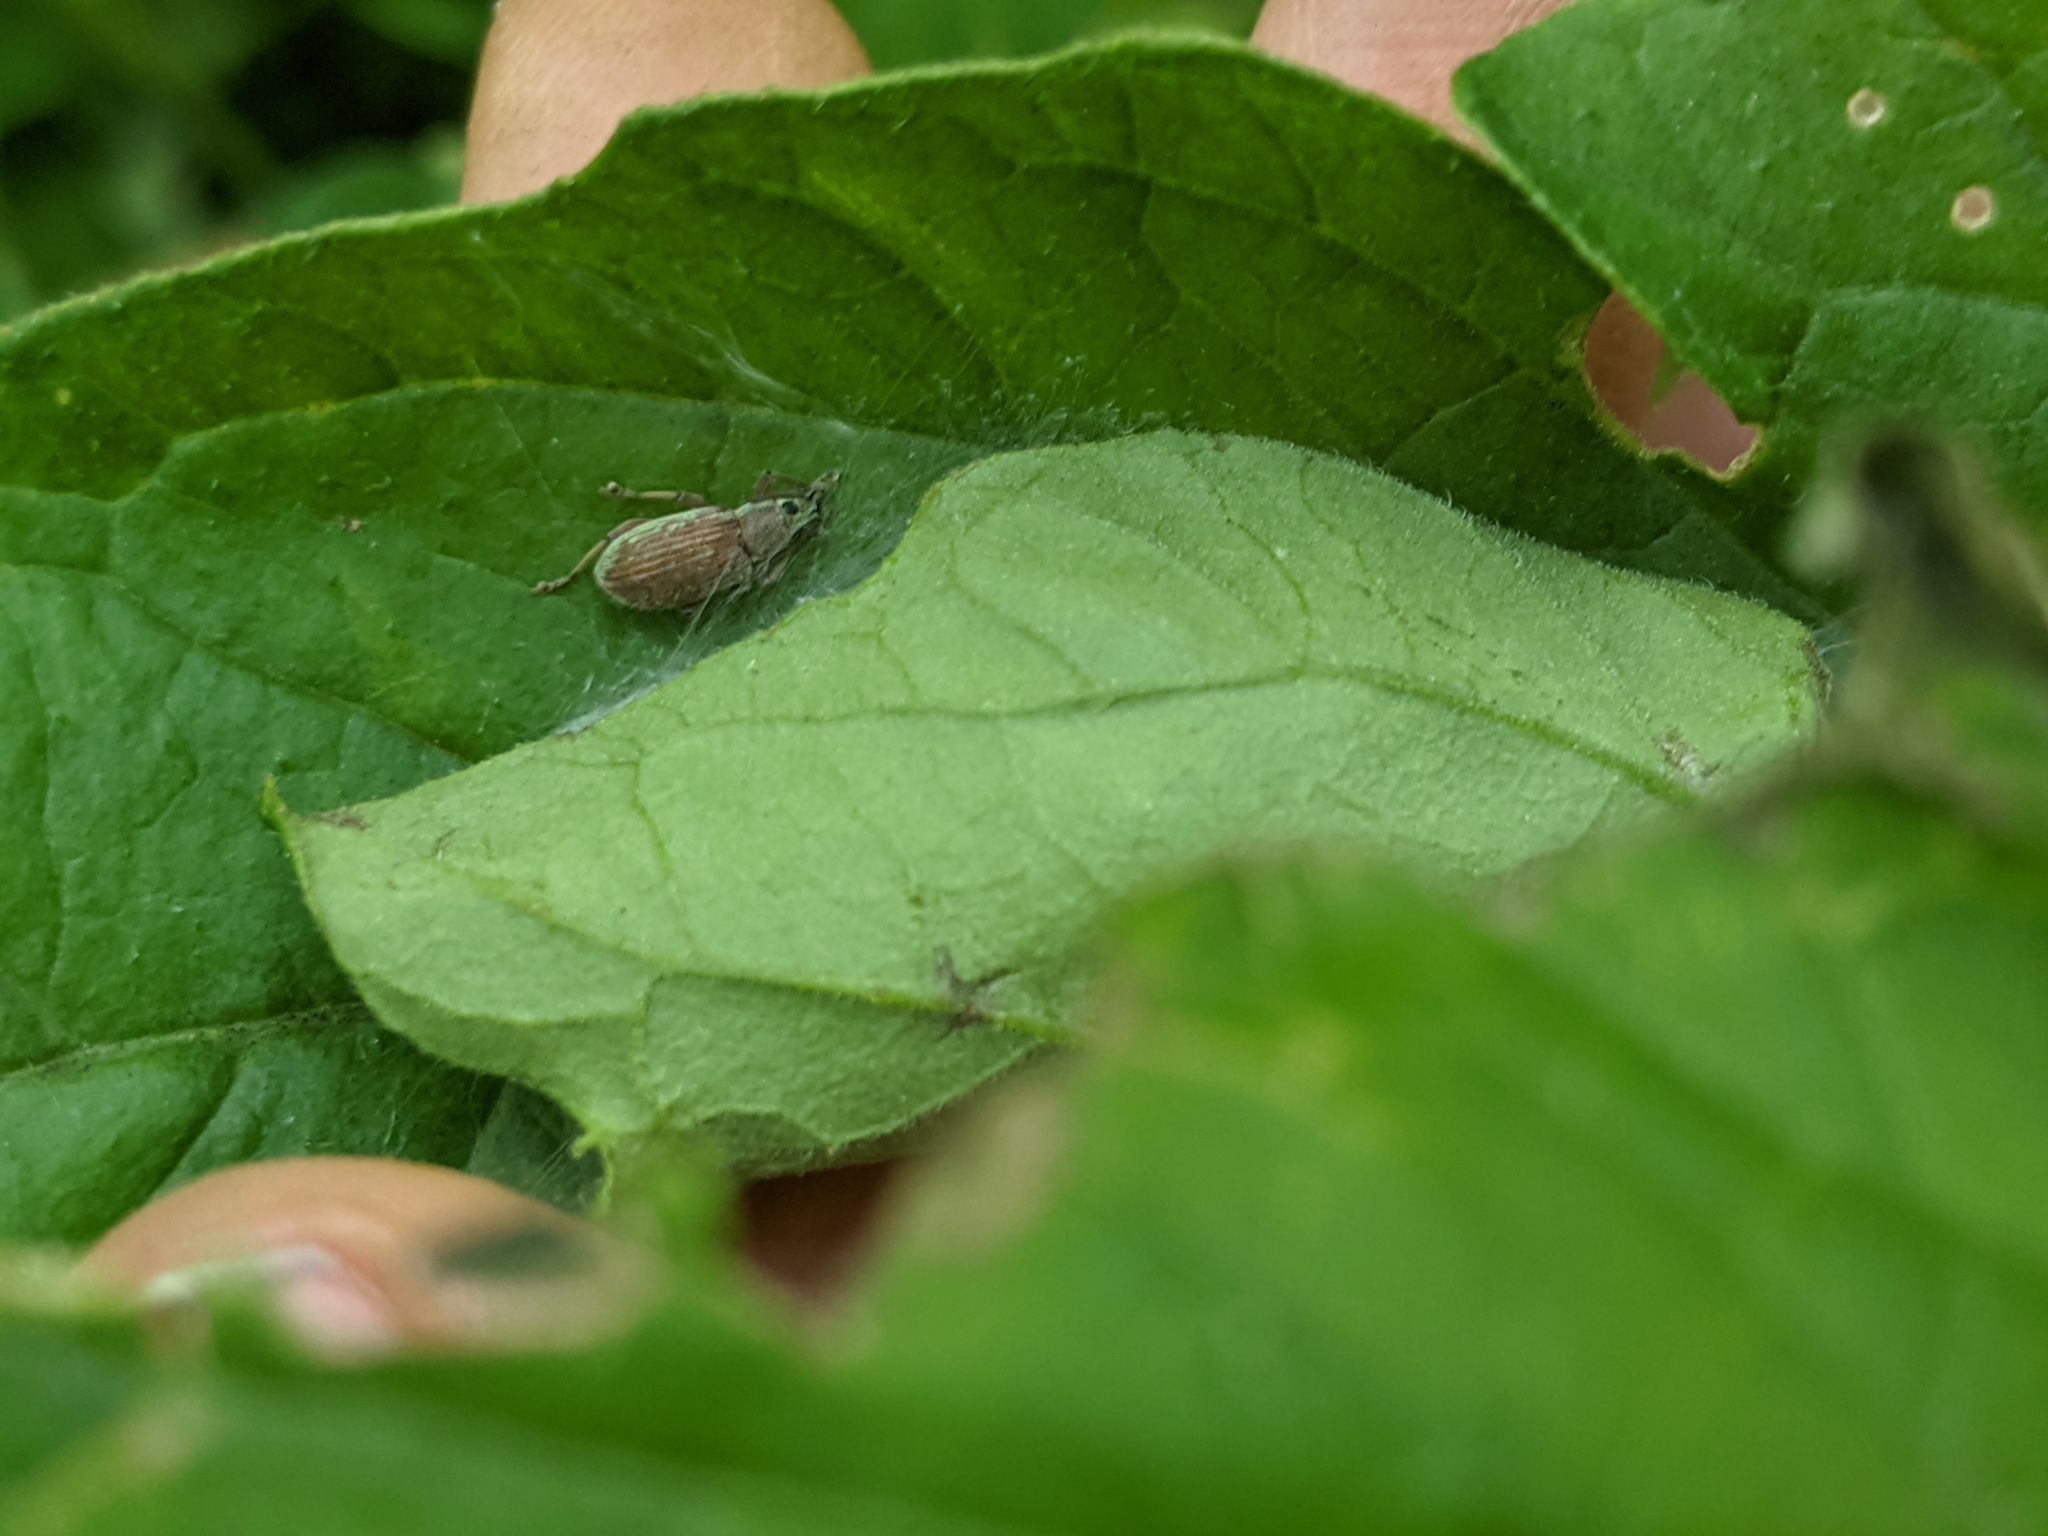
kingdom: Animalia
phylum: Arthropoda
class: Insecta
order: Coleoptera
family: Curculionidae
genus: Cyrtepistomus
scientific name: Cyrtepistomus castaneus
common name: Weevil
